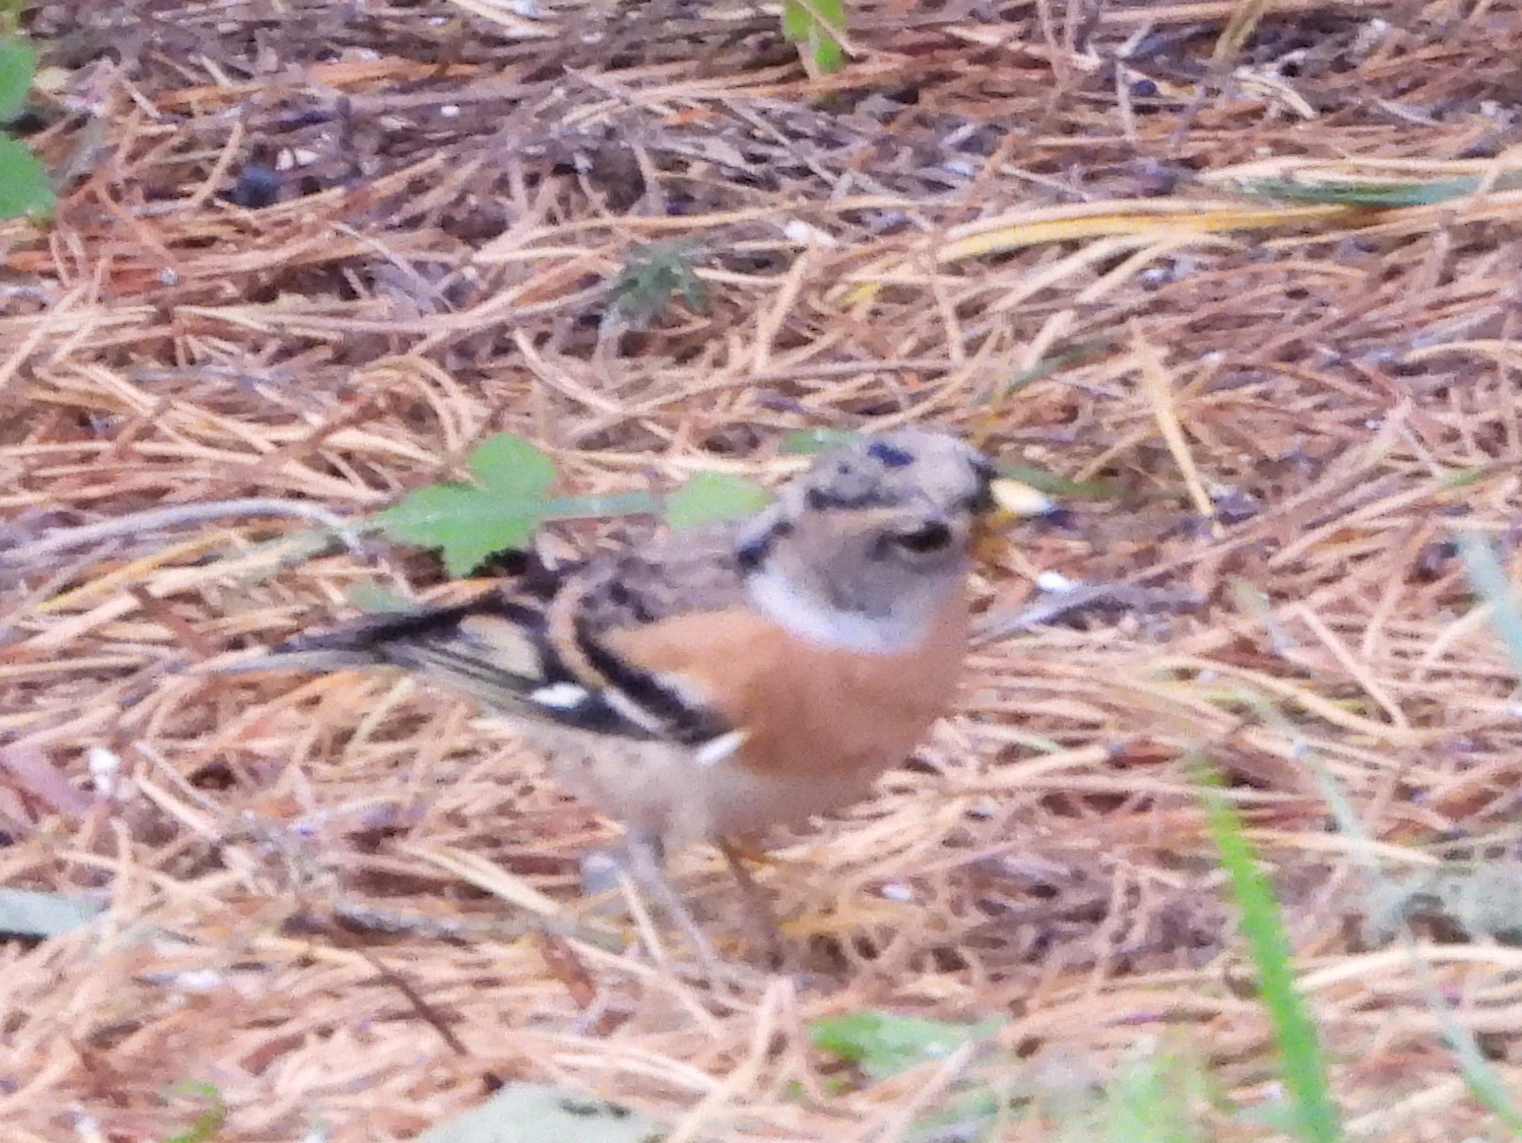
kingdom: Animalia
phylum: Chordata
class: Aves
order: Passeriformes
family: Fringillidae
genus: Fringilla
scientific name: Fringilla montifringilla
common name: Brambling
